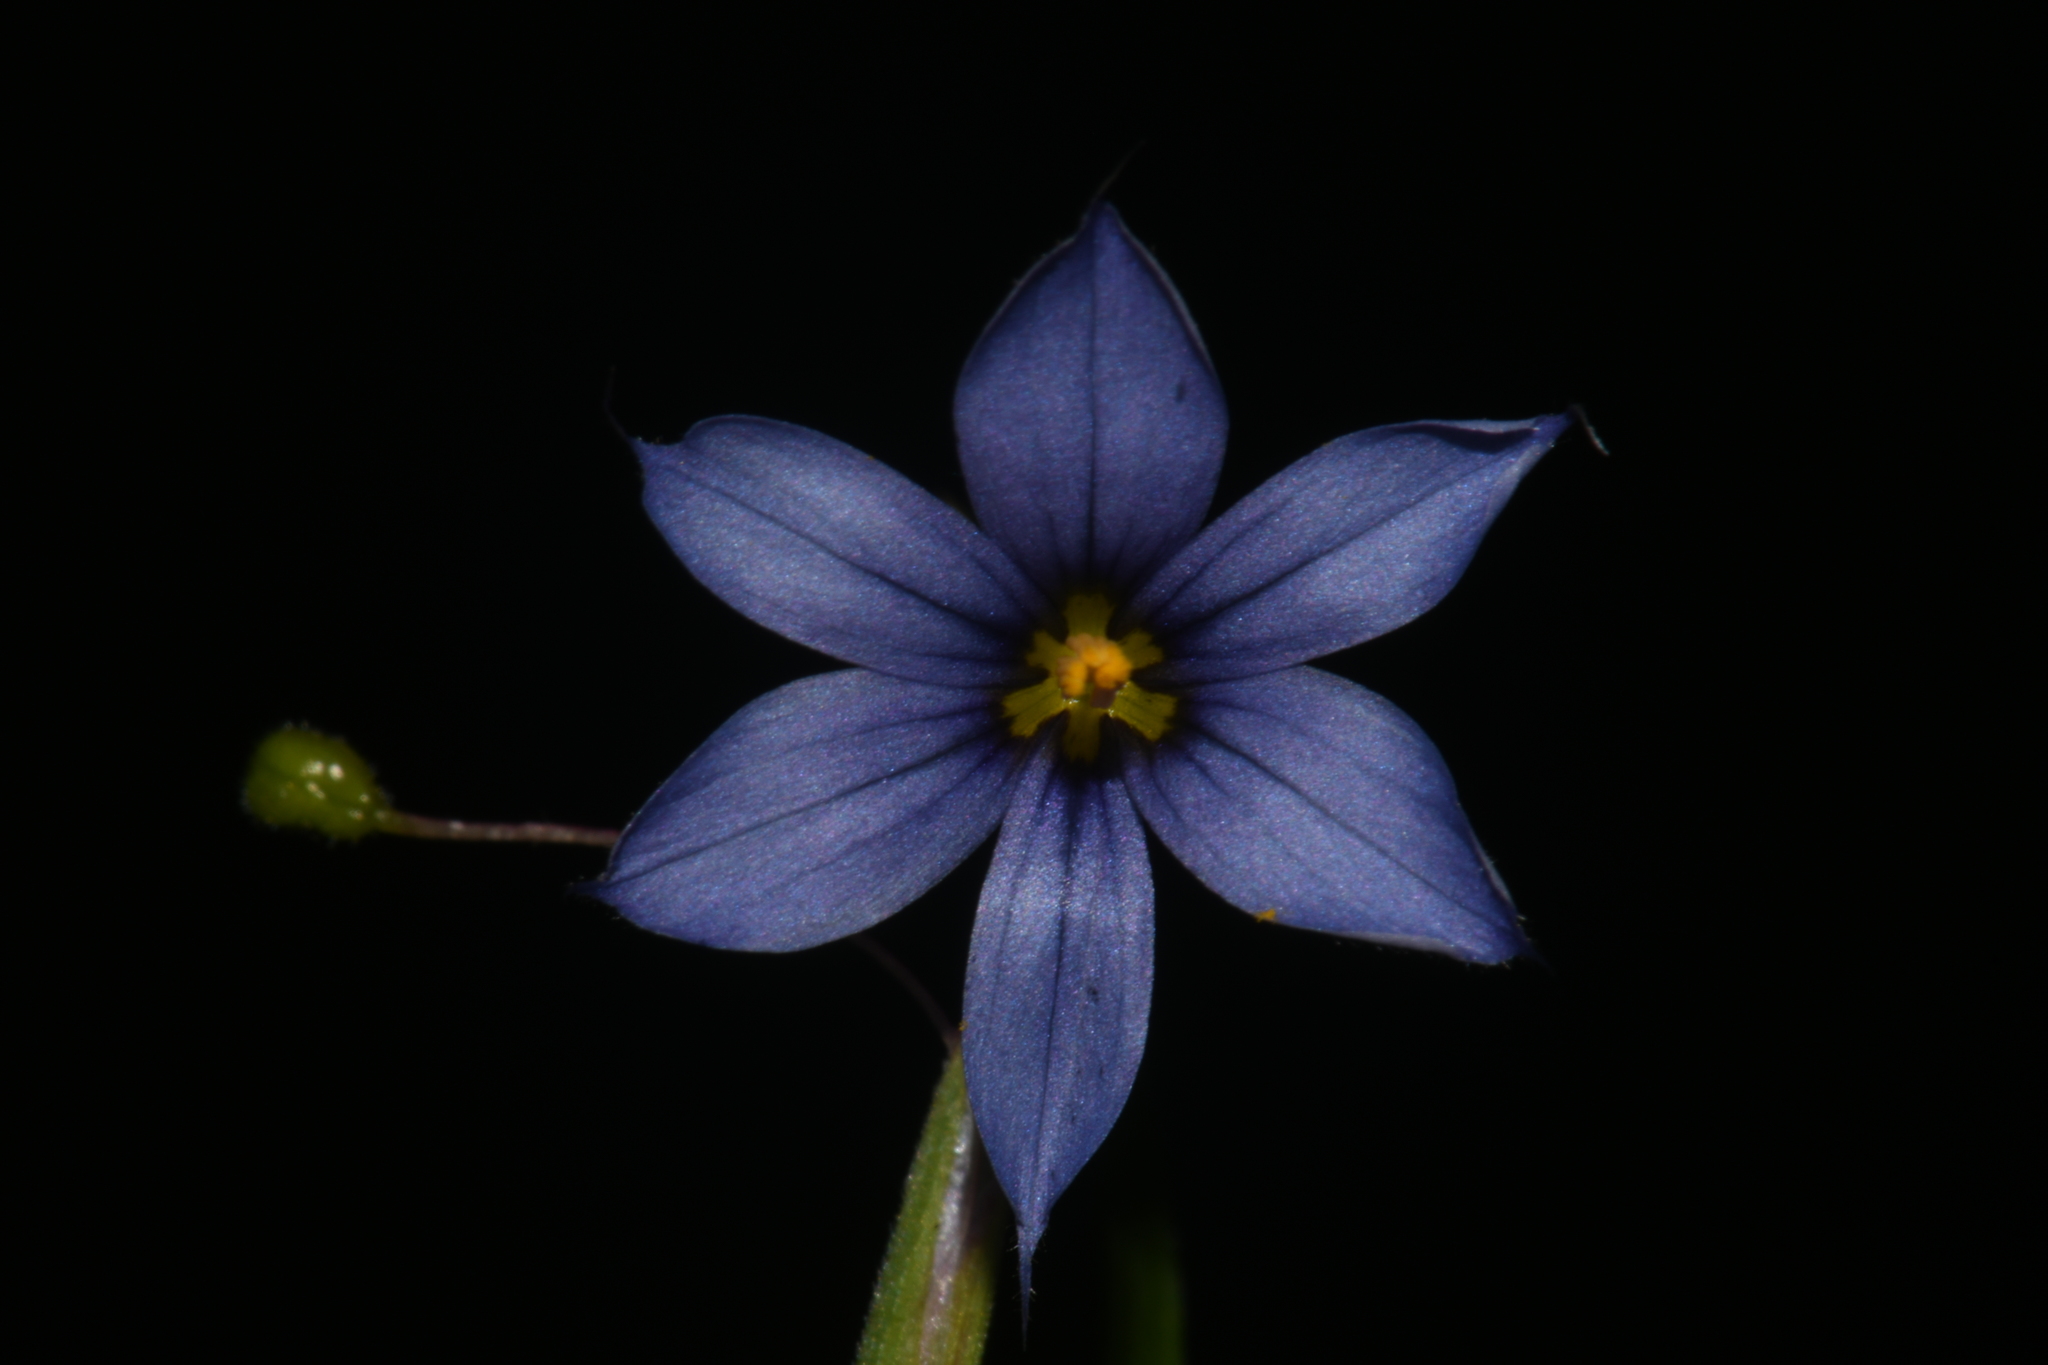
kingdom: Plantae
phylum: Tracheophyta
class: Liliopsida
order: Asparagales
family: Iridaceae
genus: Sisyrinchium
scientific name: Sisyrinchium angustifolium
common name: Narrow-leaf blue-eyed-grass
